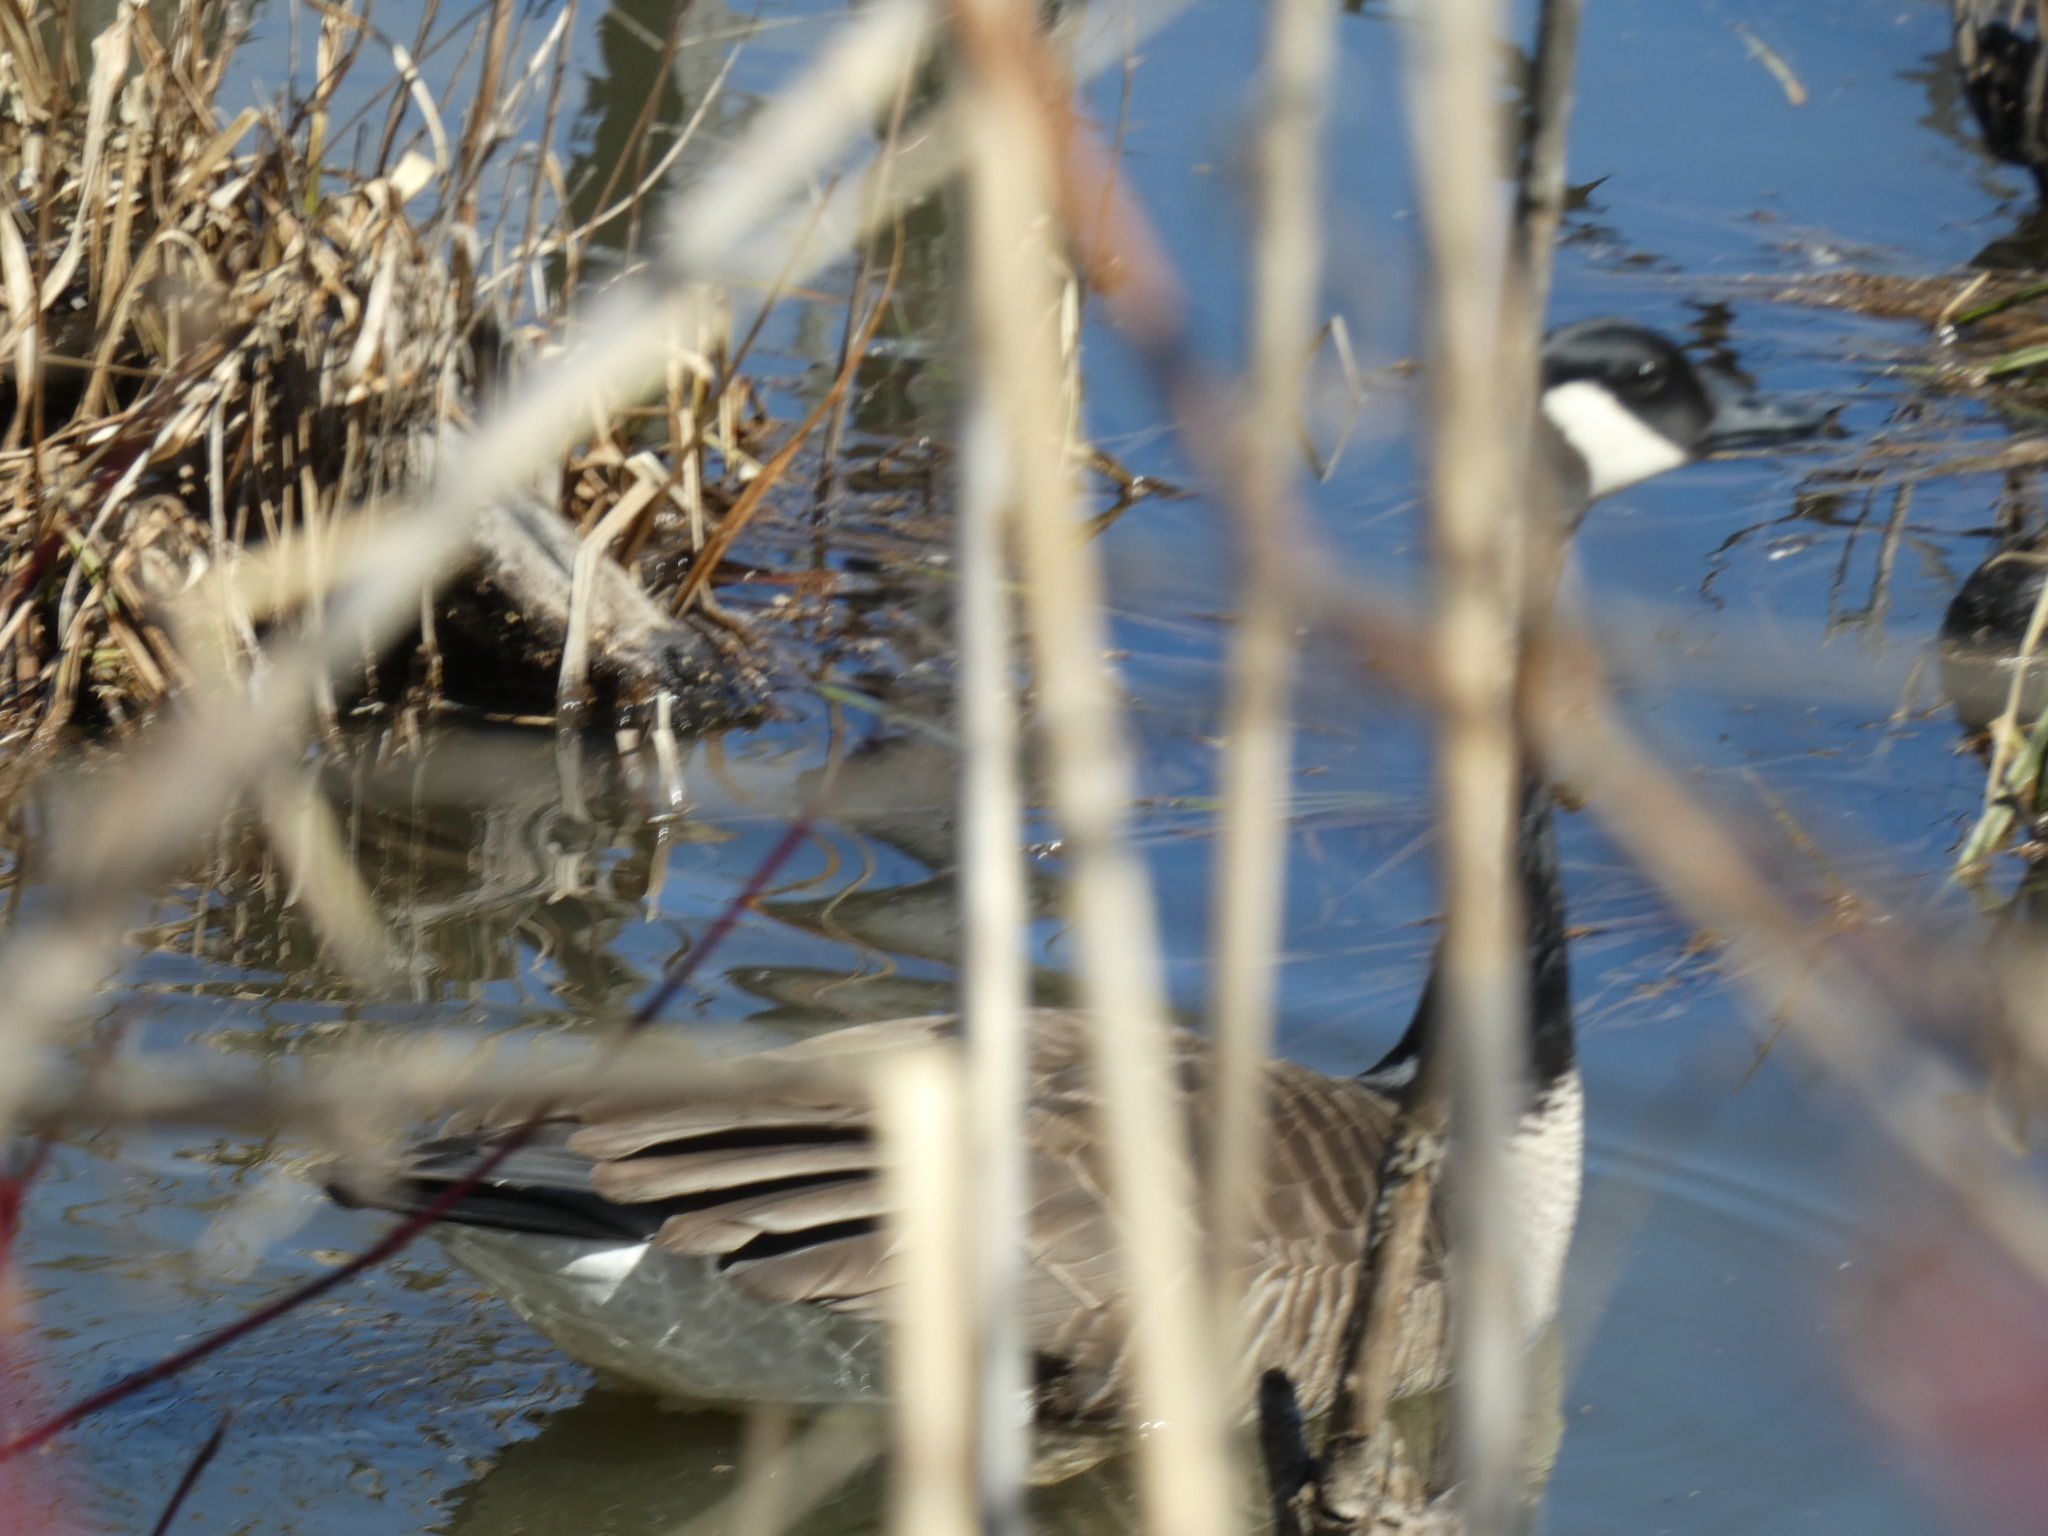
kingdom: Animalia
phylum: Chordata
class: Aves
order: Anseriformes
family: Anatidae
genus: Branta
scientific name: Branta canadensis
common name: Canada goose
